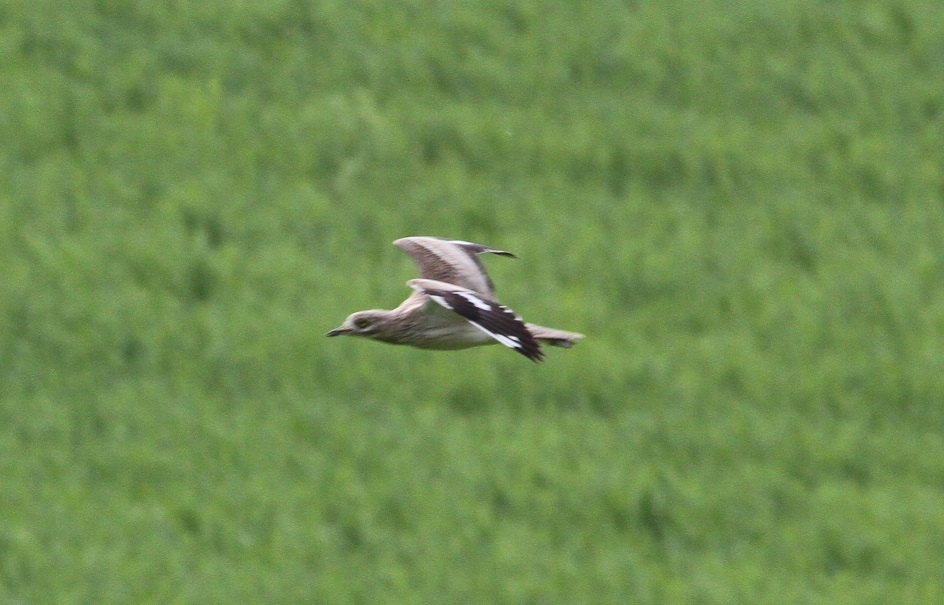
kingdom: Animalia
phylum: Chordata
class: Aves
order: Charadriiformes
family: Burhinidae
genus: Burhinus
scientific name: Burhinus oedicnemus
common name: Eurasian stone-curlew
